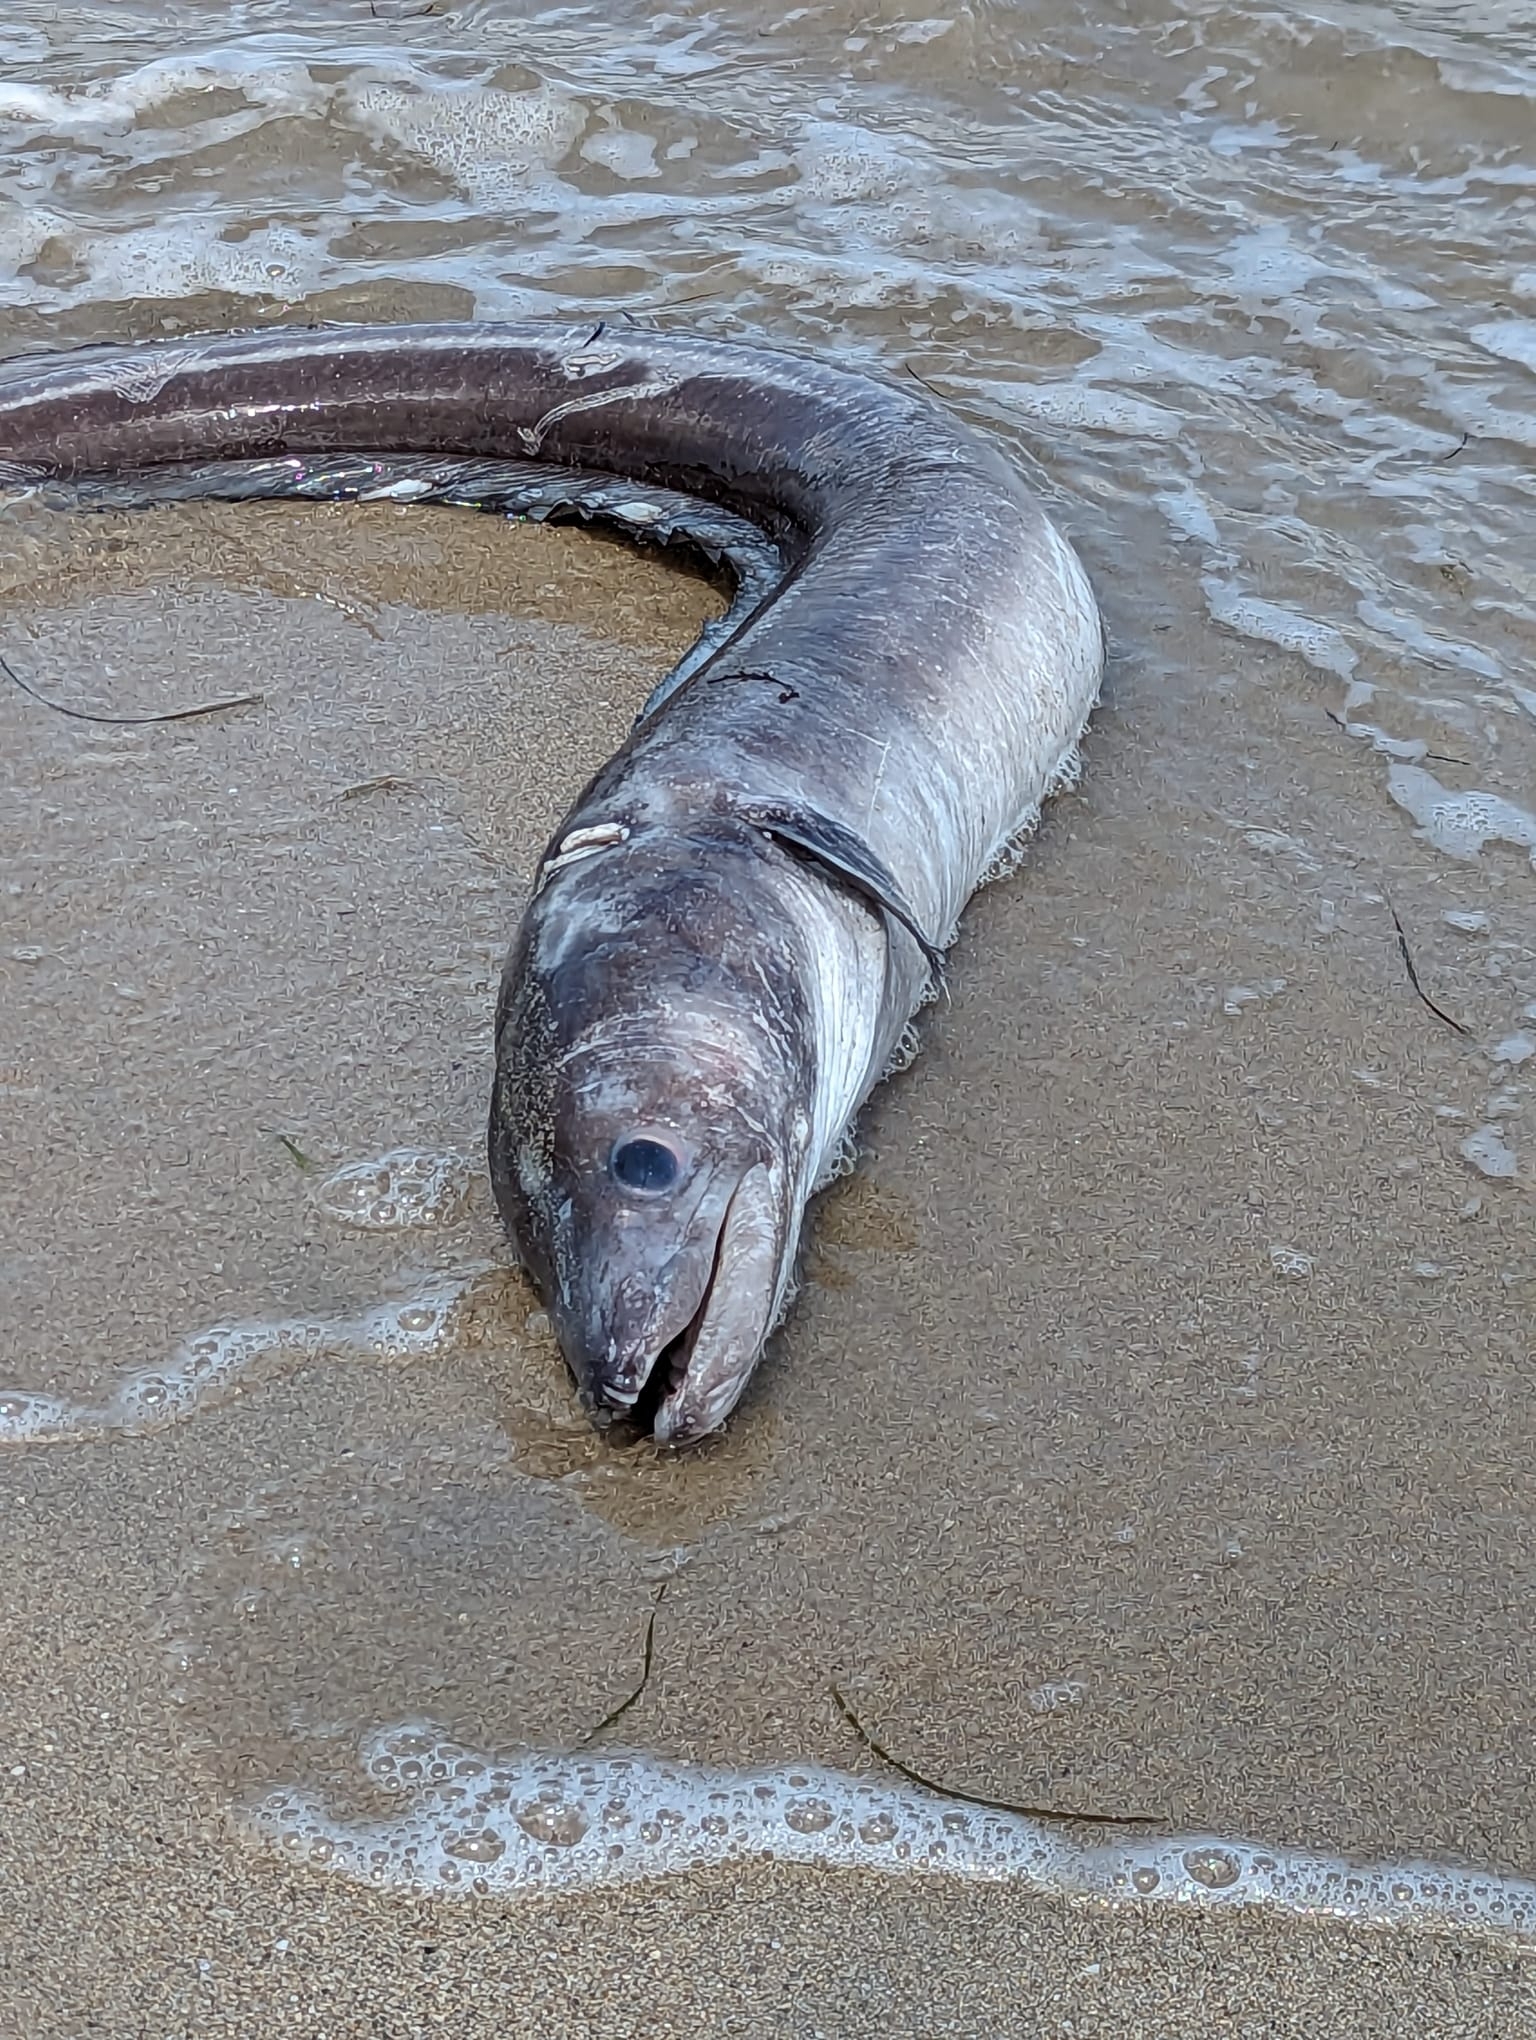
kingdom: Animalia
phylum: Chordata
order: Anguilliformes
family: Congridae
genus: Conger
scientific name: Conger conger
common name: Conger eel
